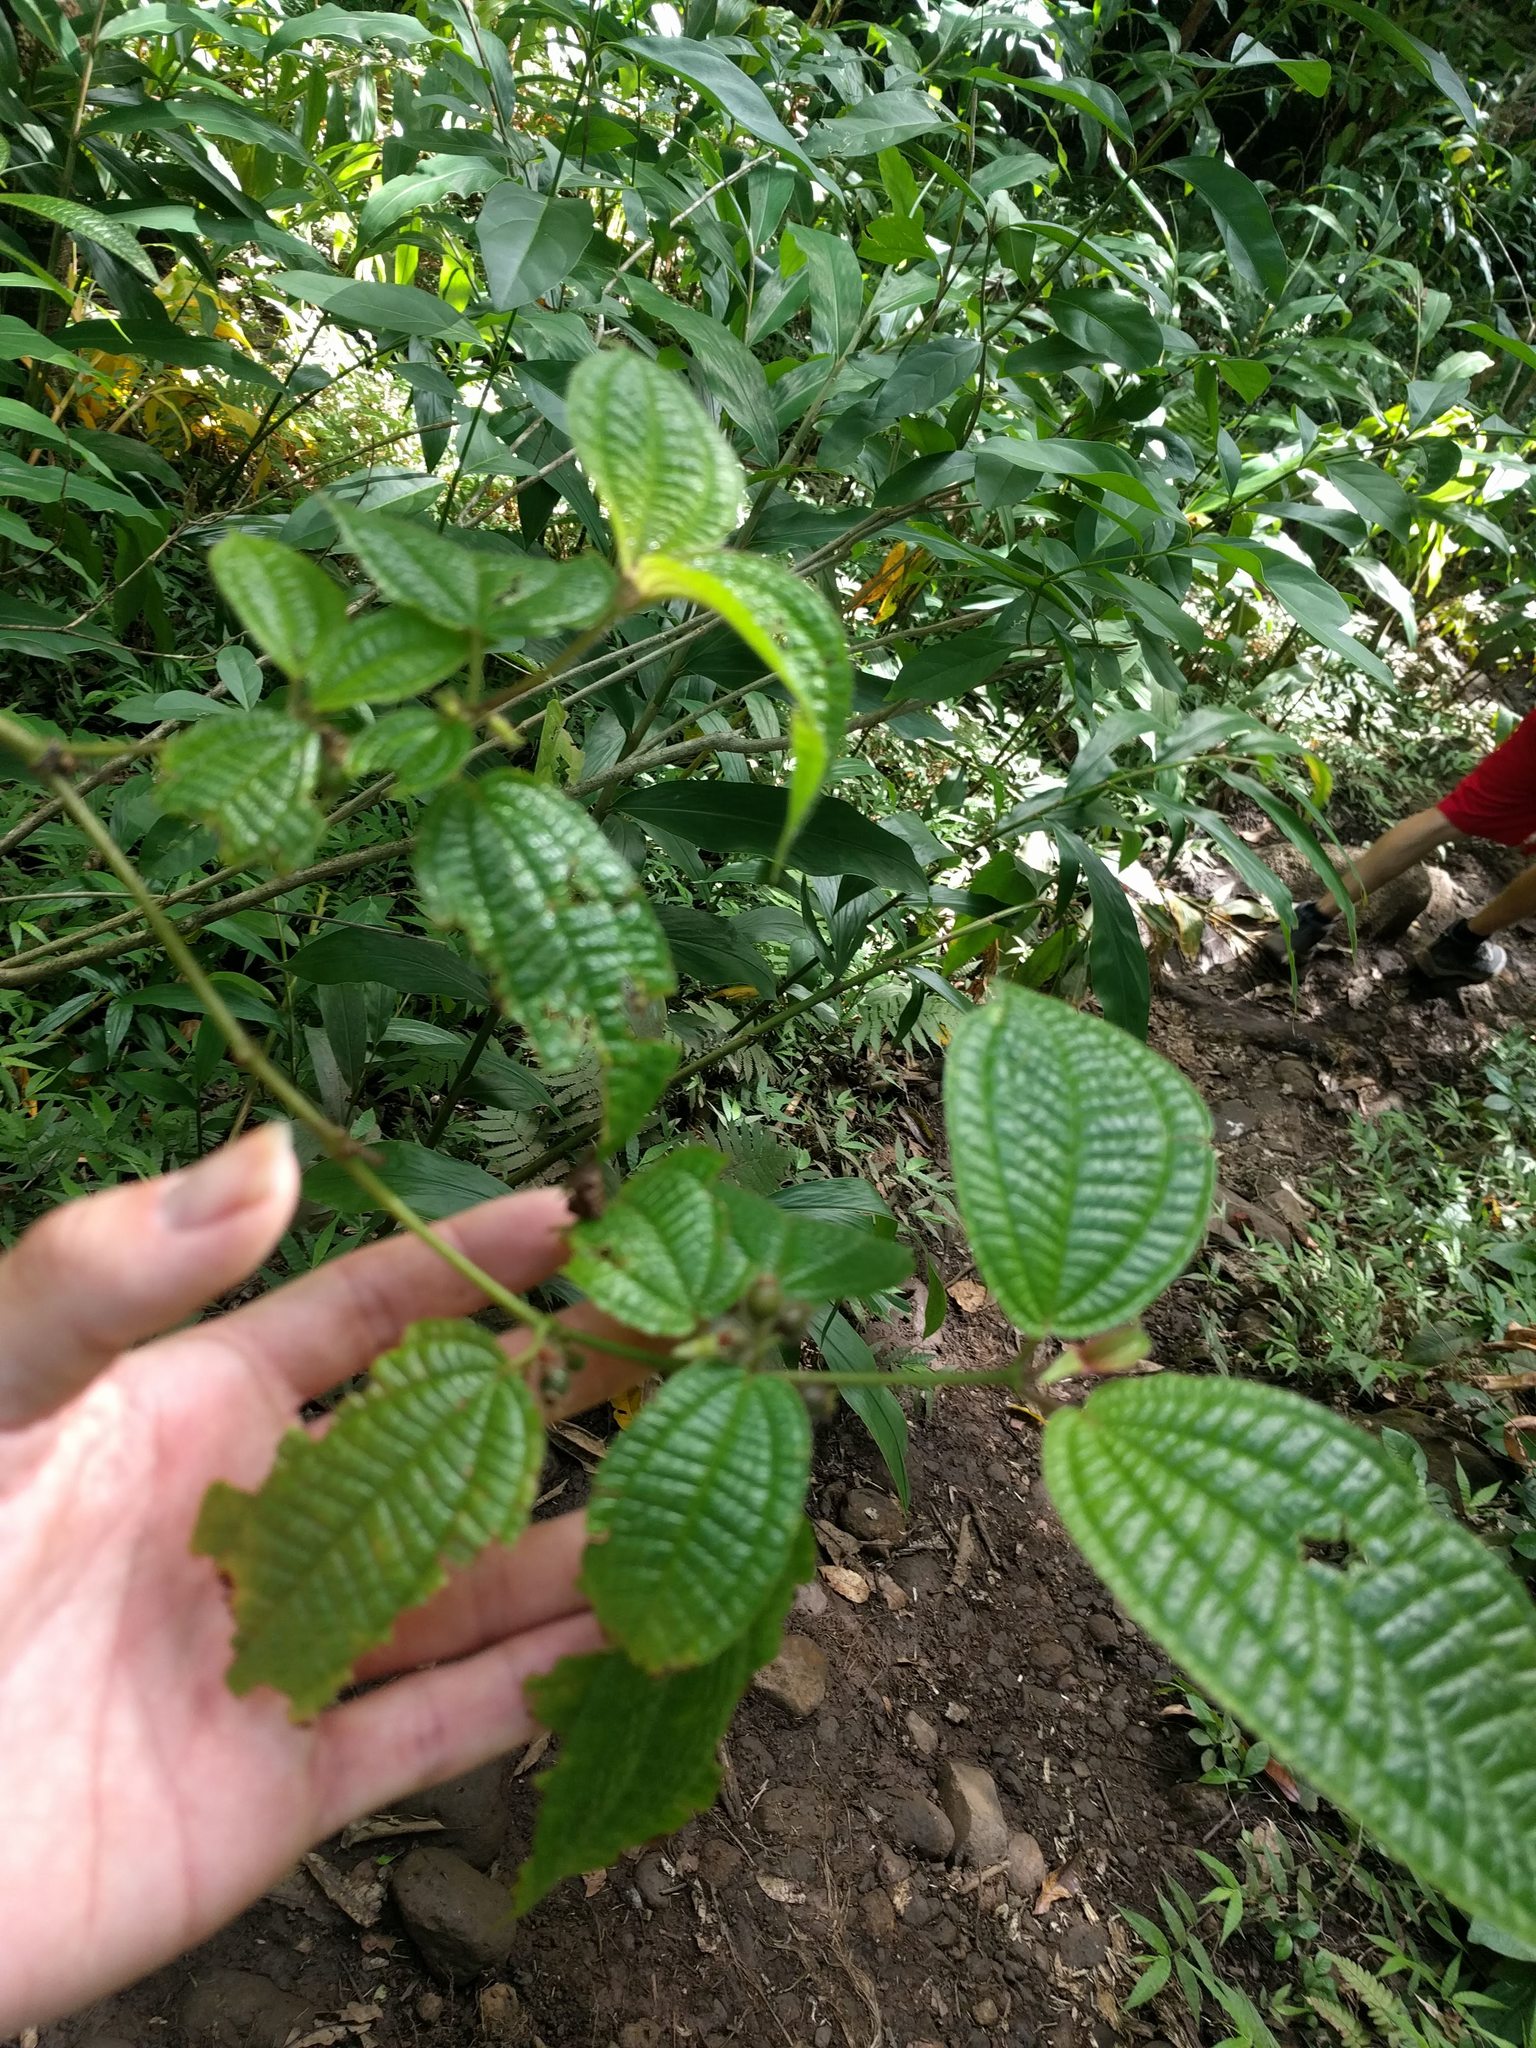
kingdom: Plantae
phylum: Tracheophyta
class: Magnoliopsida
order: Myrtales
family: Melastomataceae
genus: Miconia
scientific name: Miconia crenata
